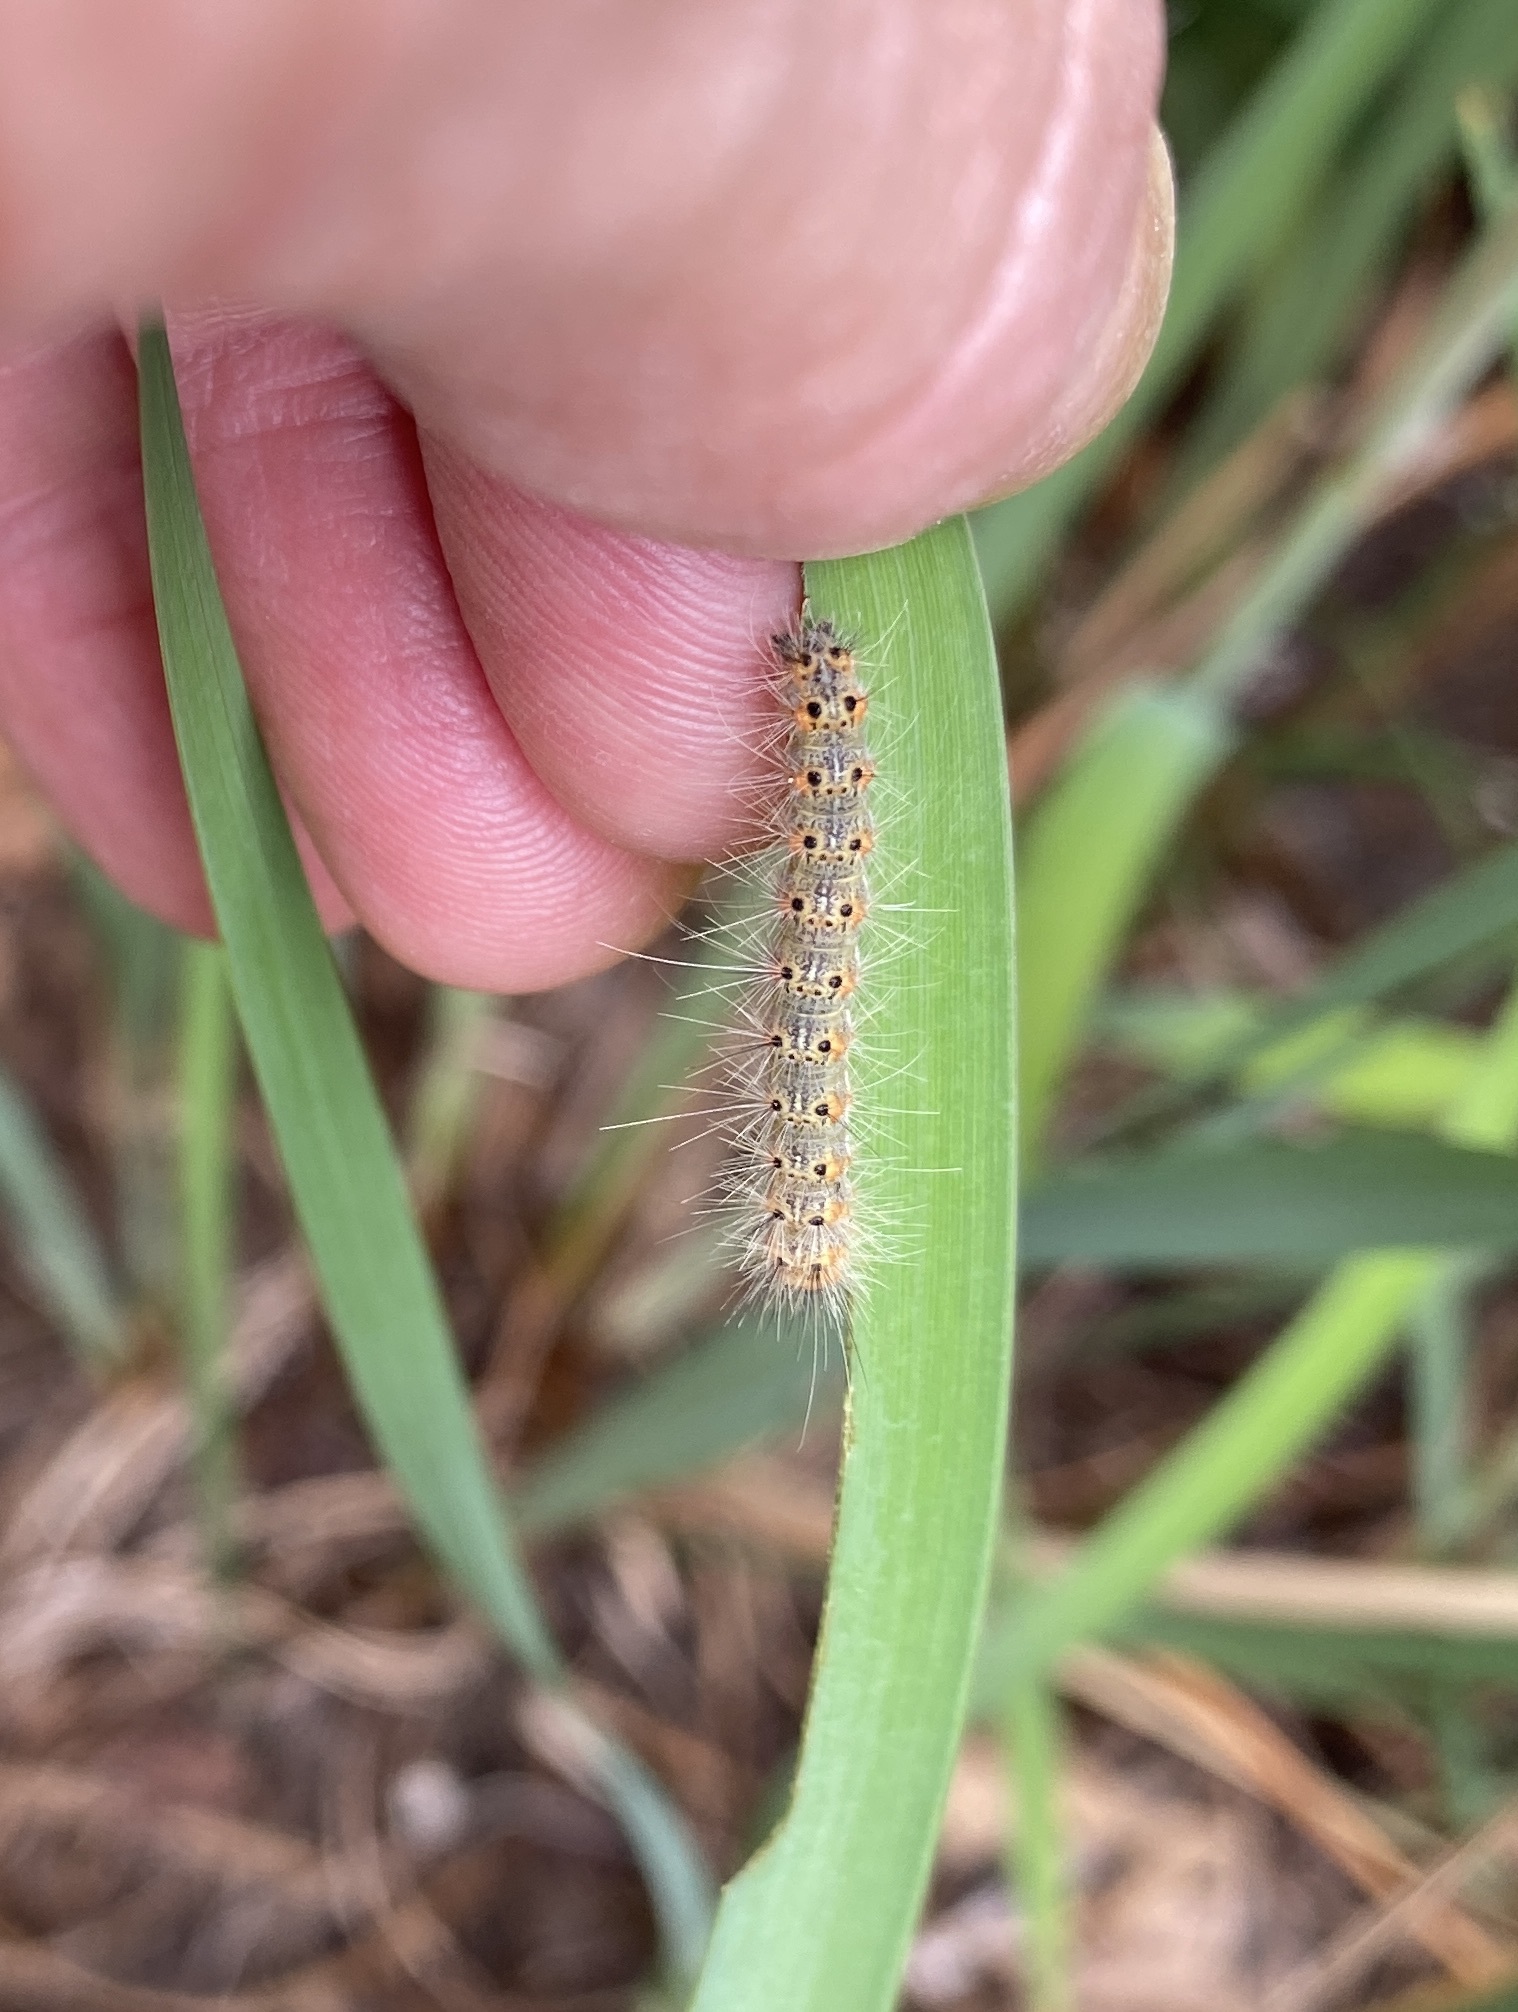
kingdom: Animalia
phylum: Arthropoda
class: Insecta
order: Lepidoptera
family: Erebidae
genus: Hyphantria
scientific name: Hyphantria cunea
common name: American white moth
